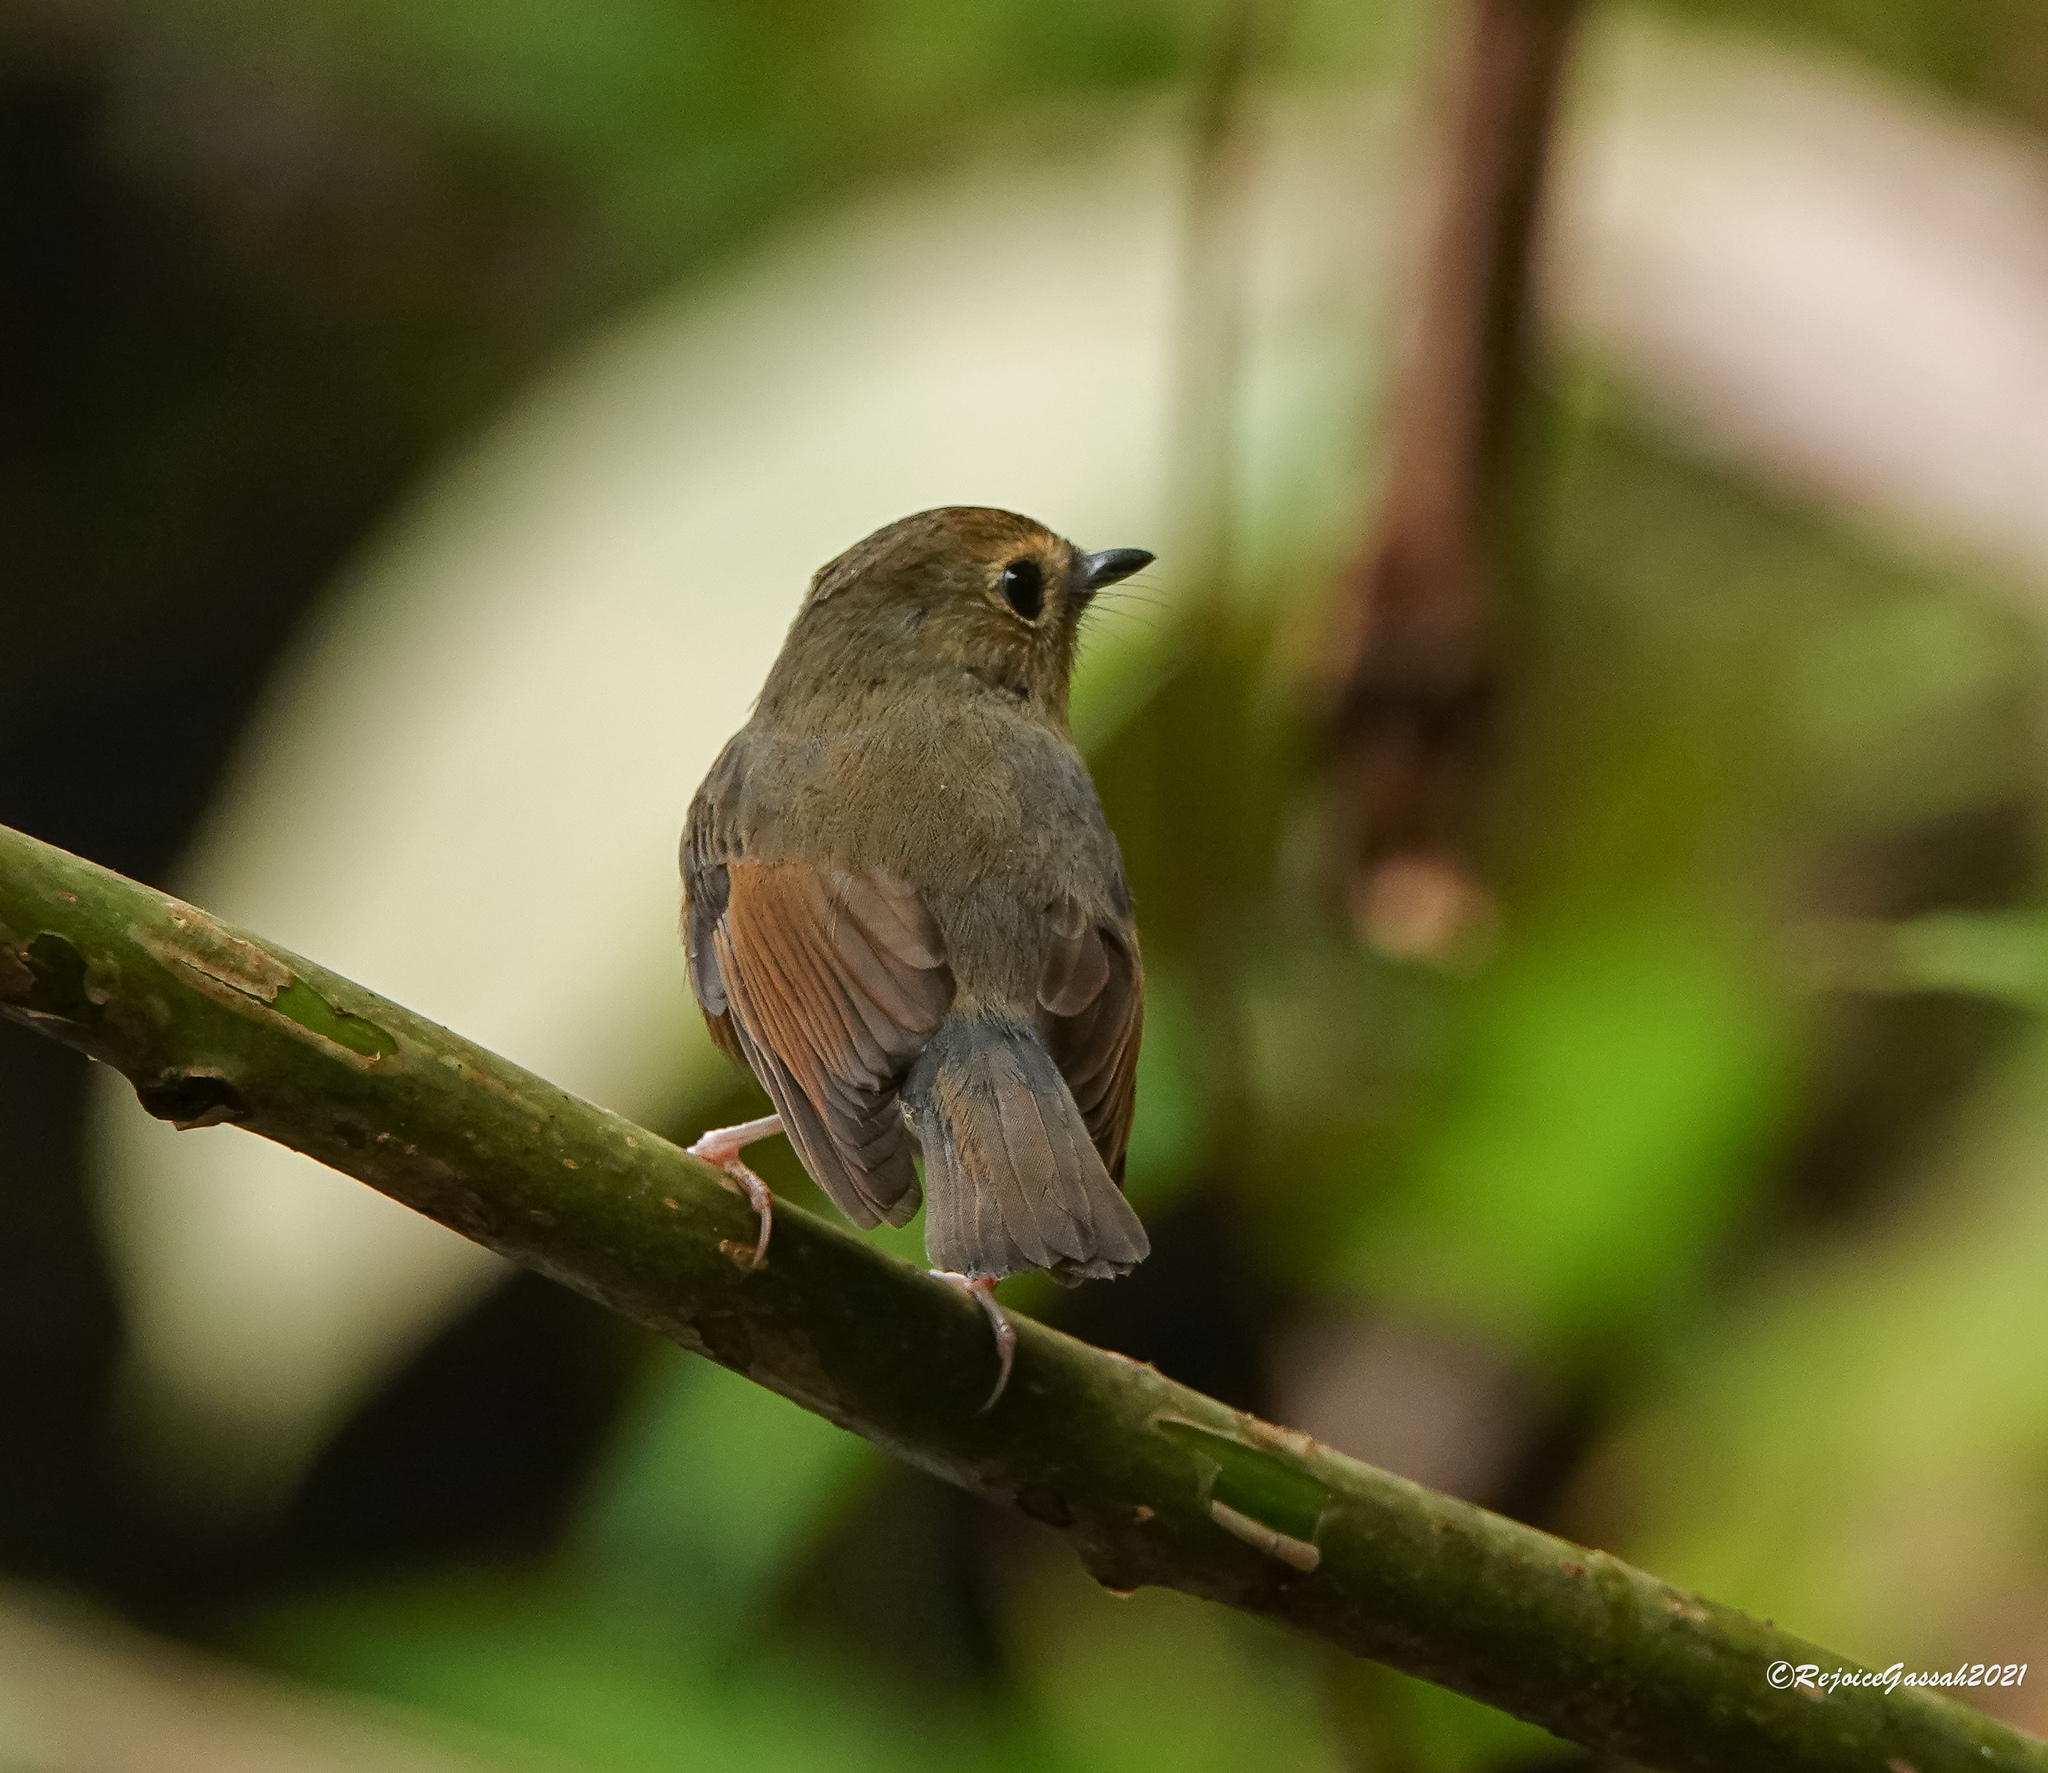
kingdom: Animalia
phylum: Chordata
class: Aves
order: Passeriformes
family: Muscicapidae
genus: Ficedula
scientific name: Ficedula hyperythra
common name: Snowy-browed flycatcher
